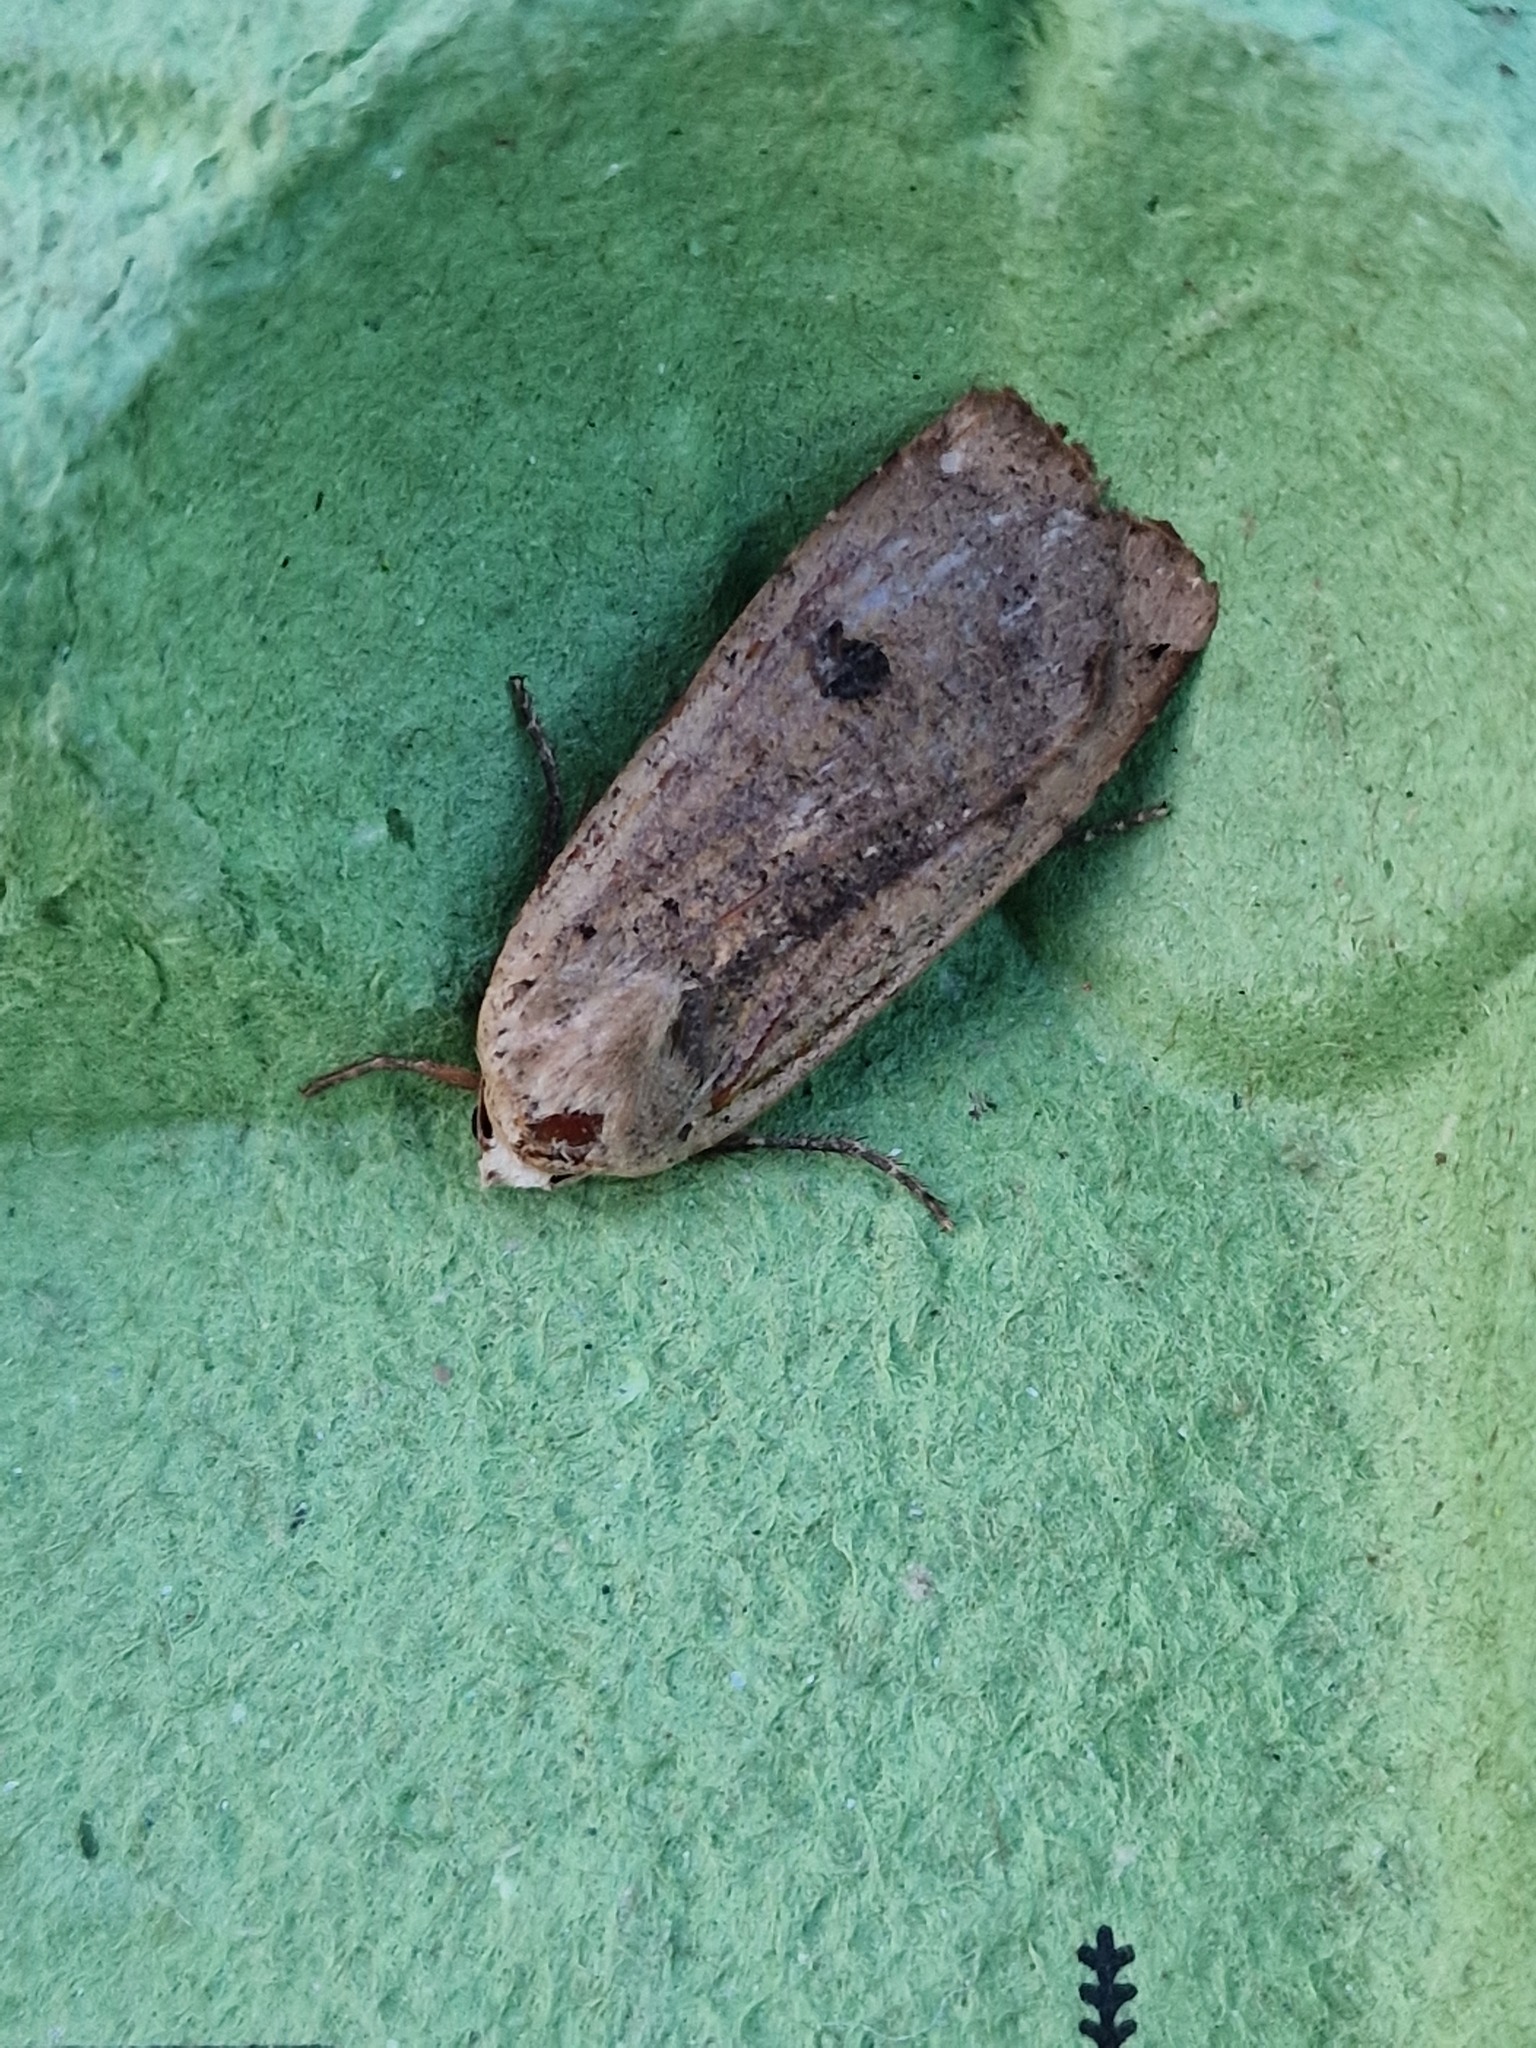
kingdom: Animalia
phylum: Arthropoda
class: Insecta
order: Lepidoptera
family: Noctuidae
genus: Noctua
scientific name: Noctua pronuba
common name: Large yellow underwing
